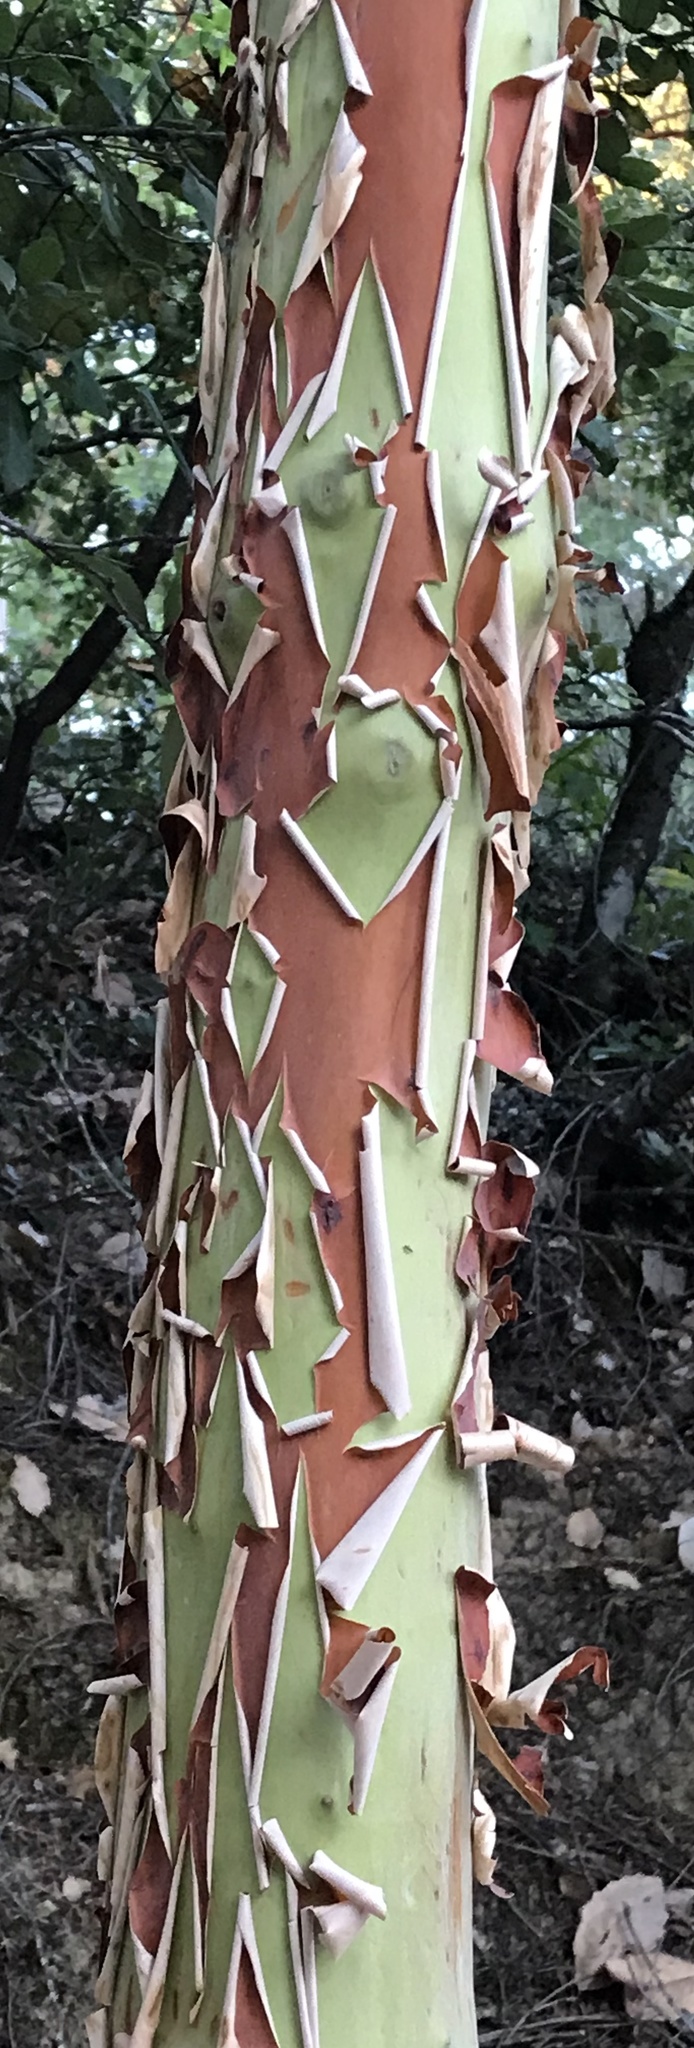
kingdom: Plantae
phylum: Tracheophyta
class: Magnoliopsida
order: Ericales
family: Ericaceae
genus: Arbutus
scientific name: Arbutus menziesii
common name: Pacific madrone
